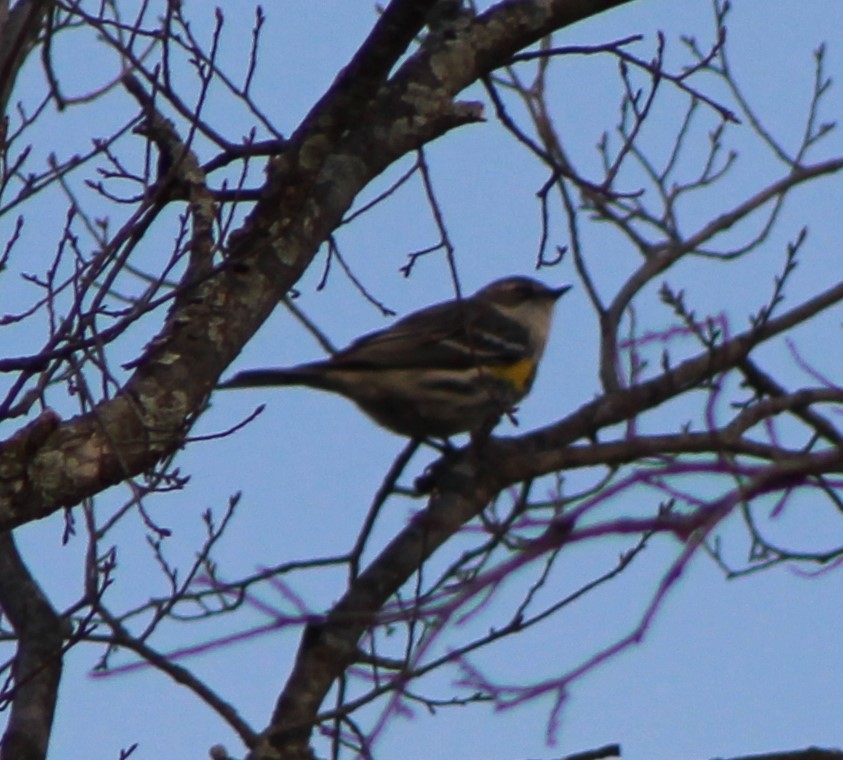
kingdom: Animalia
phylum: Chordata
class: Aves
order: Passeriformes
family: Parulidae
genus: Setophaga
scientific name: Setophaga coronata
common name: Myrtle warbler
